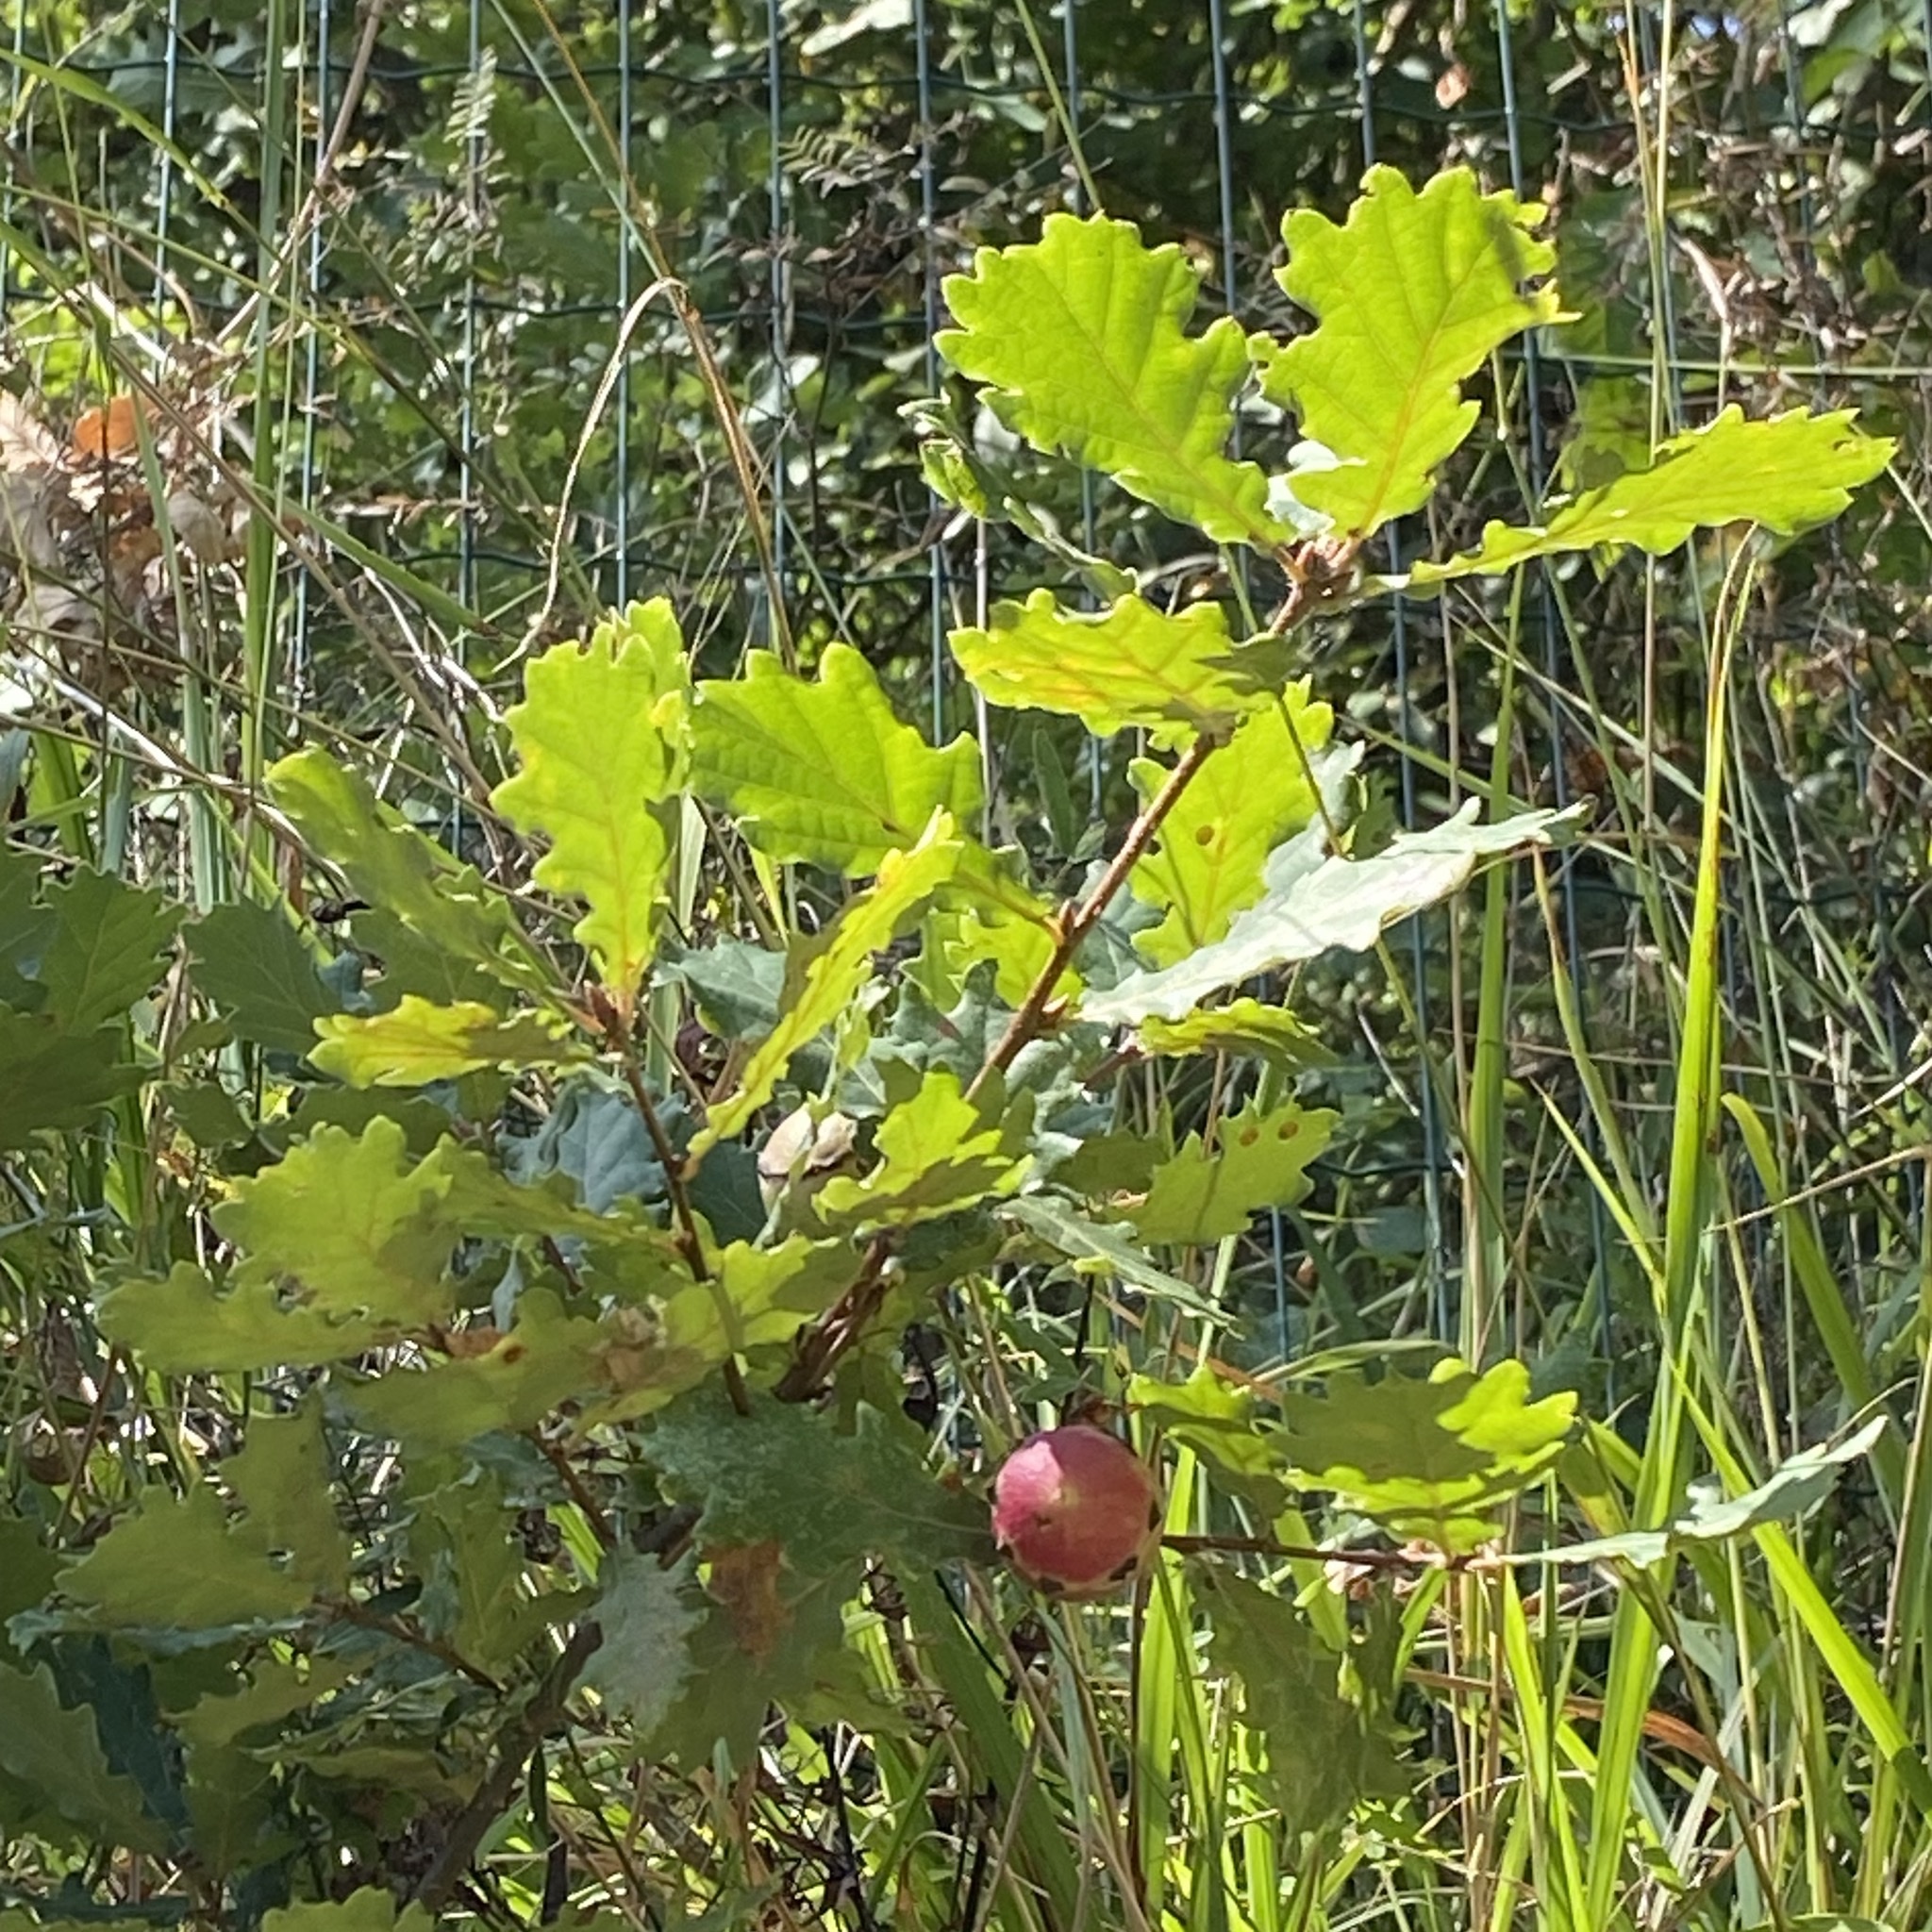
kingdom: Animalia
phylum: Arthropoda
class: Insecta
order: Hymenoptera
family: Cynipidae
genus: Andricus
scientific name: Andricus quercustozae
